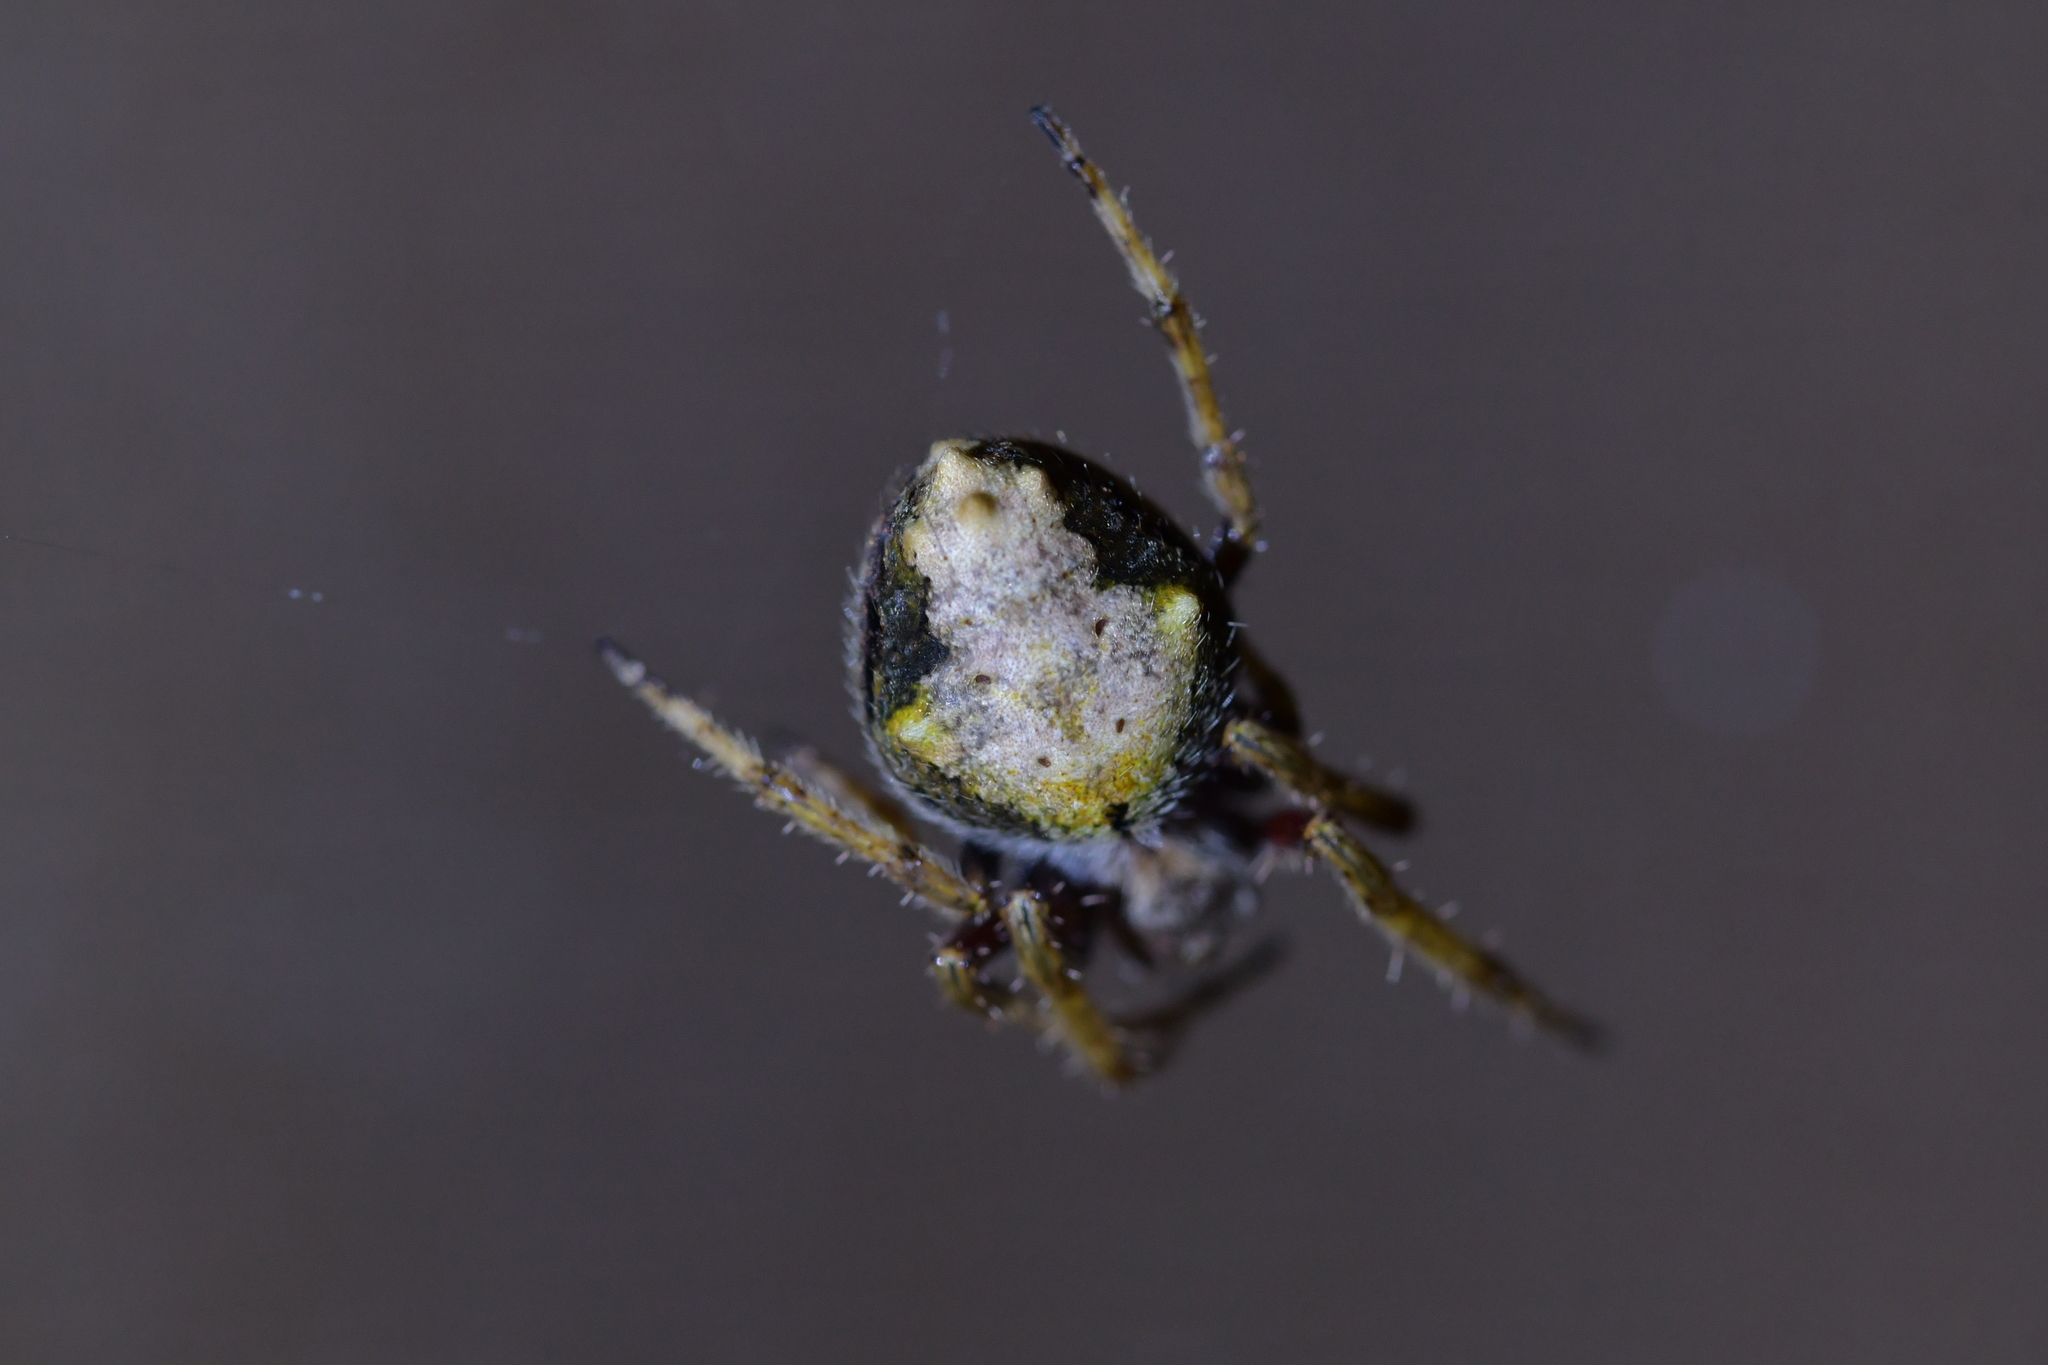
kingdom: Animalia
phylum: Arthropoda
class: Arachnida
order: Araneae
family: Araneidae
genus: Eriophora
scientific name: Eriophora pustulosa
